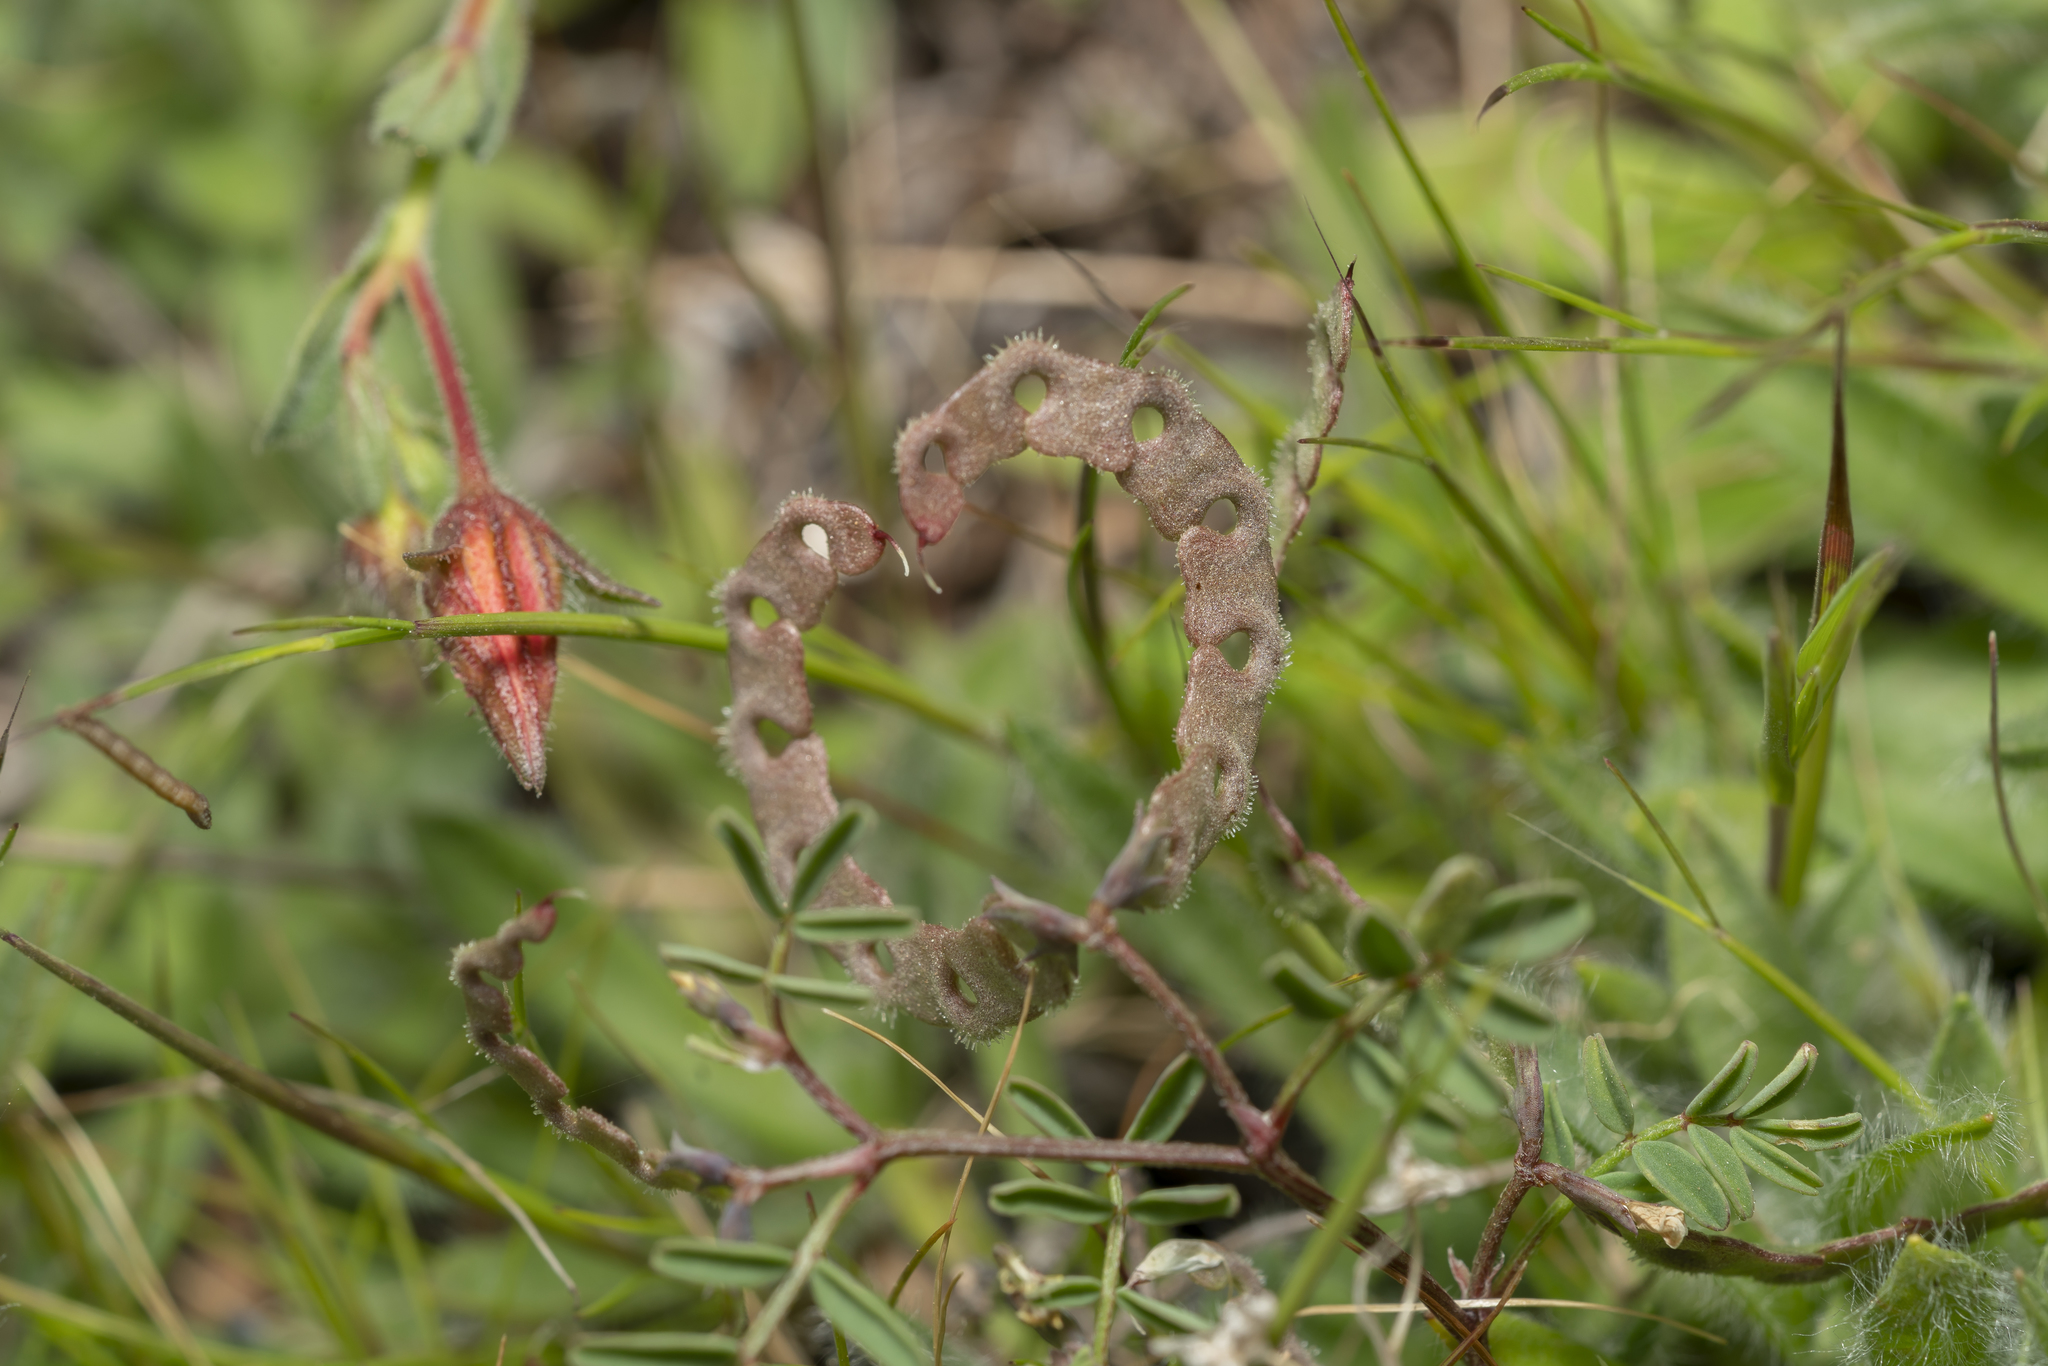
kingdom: Plantae
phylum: Tracheophyta
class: Magnoliopsida
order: Fabales
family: Fabaceae
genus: Hippocrepis
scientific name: Hippocrepis ciliata
